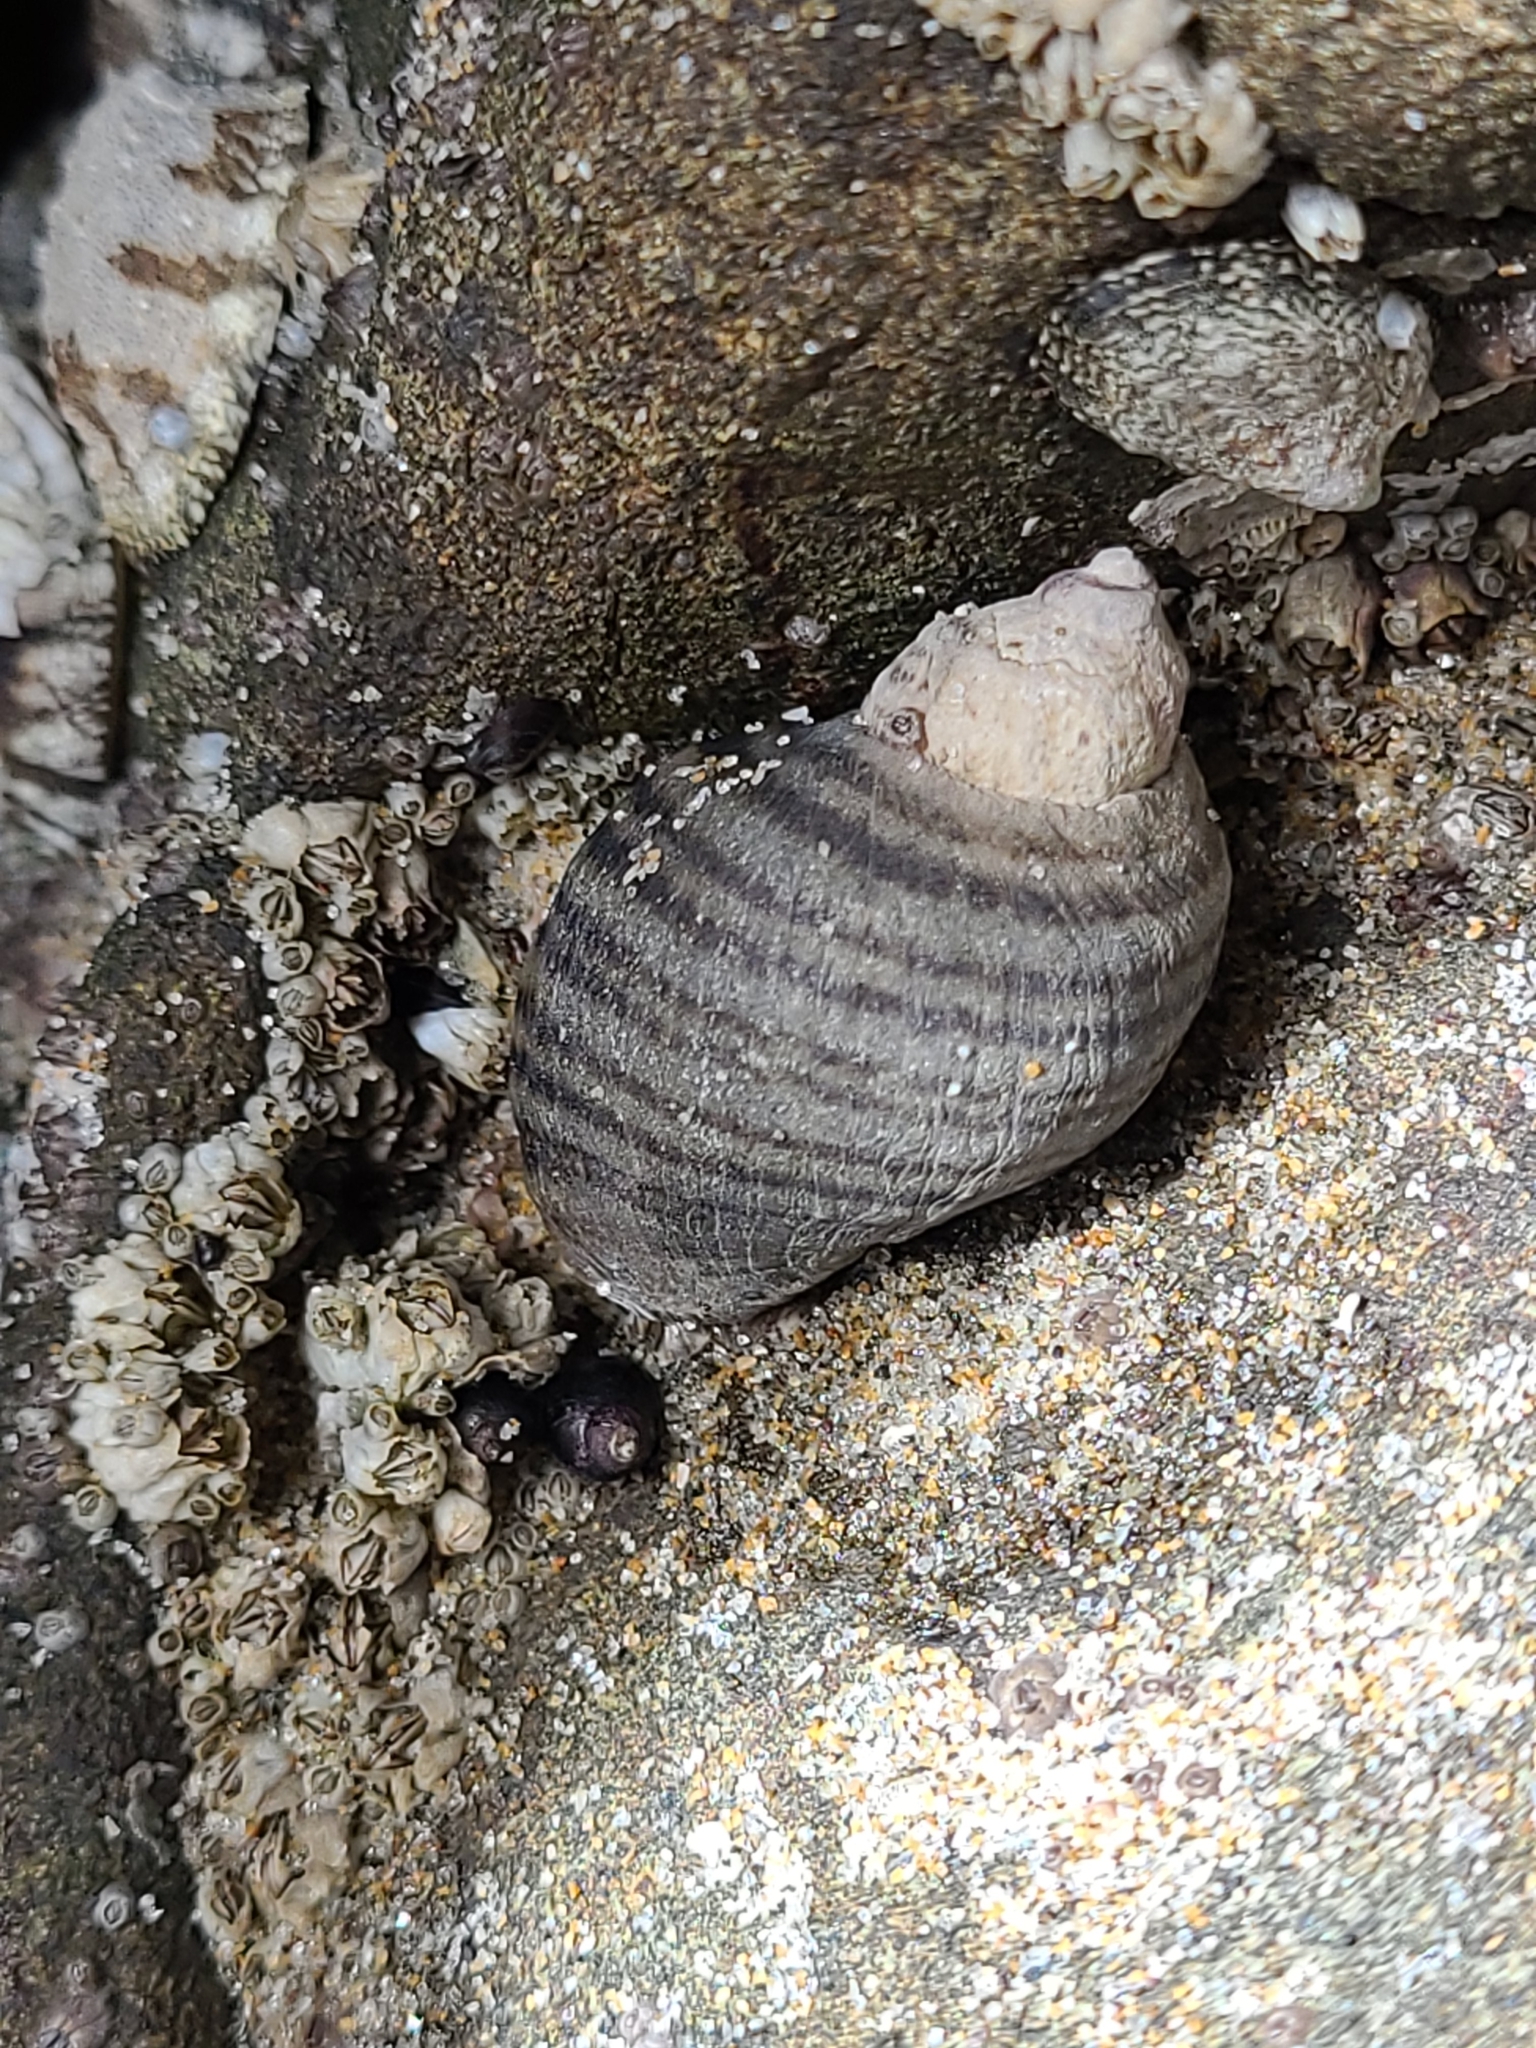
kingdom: Animalia
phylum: Mollusca
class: Gastropoda
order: Neogastropoda
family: Muricidae
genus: Nucella
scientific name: Nucella ostrina
